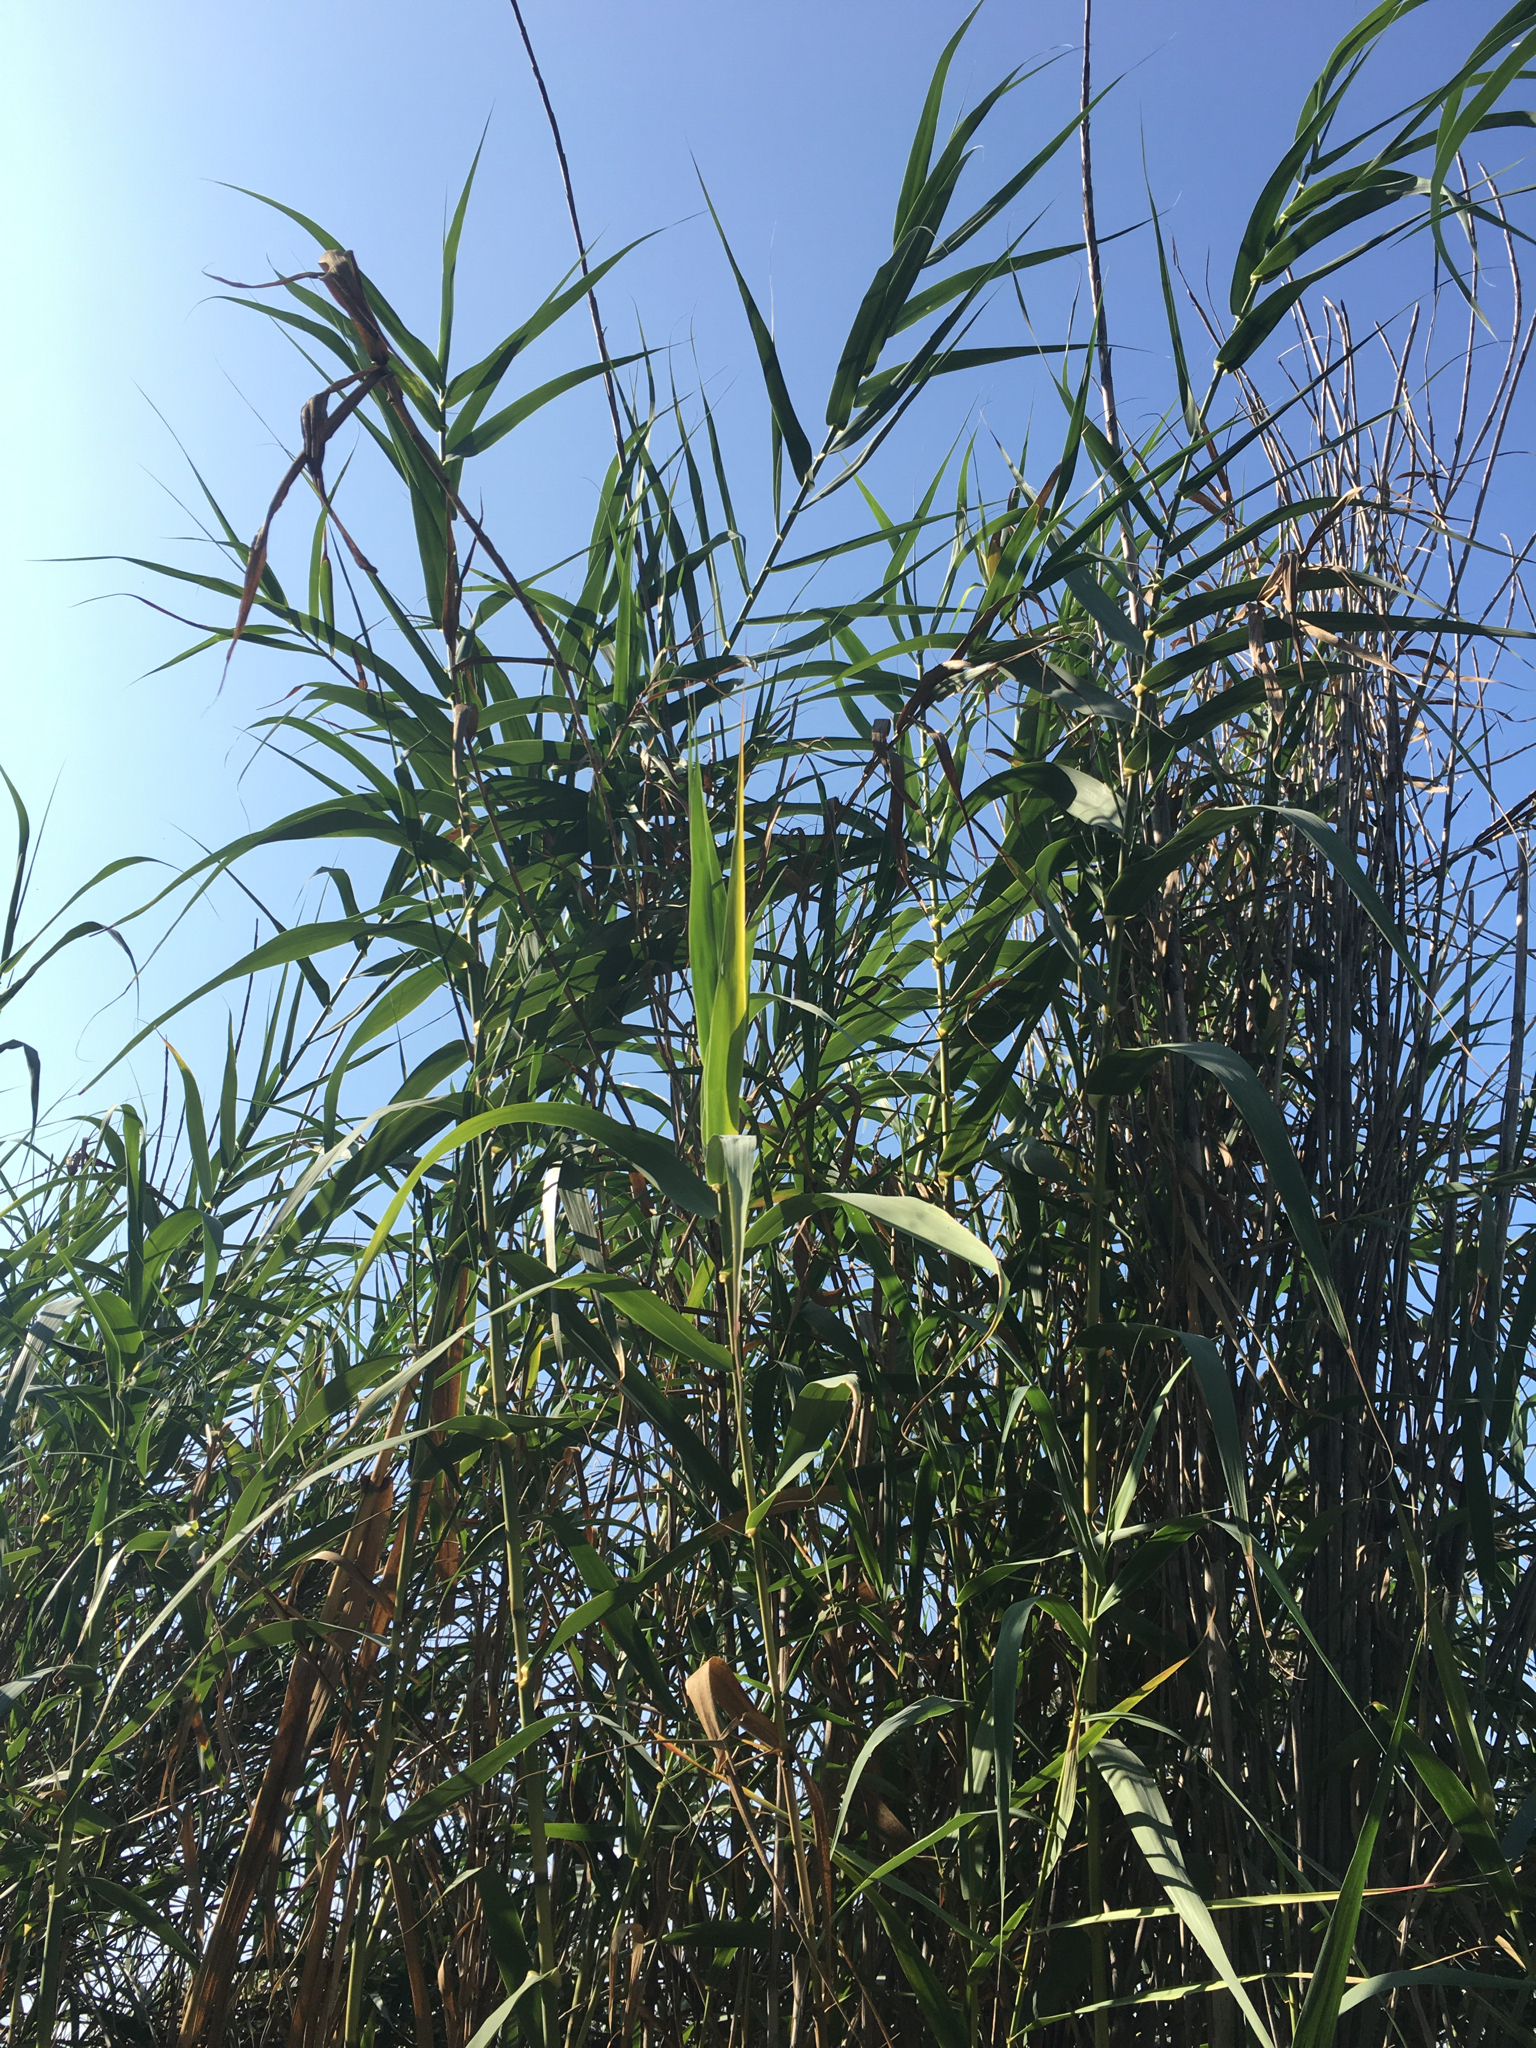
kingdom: Plantae
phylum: Tracheophyta
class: Liliopsida
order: Poales
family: Poaceae
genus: Arundo
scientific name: Arundo donax
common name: Giant reed
